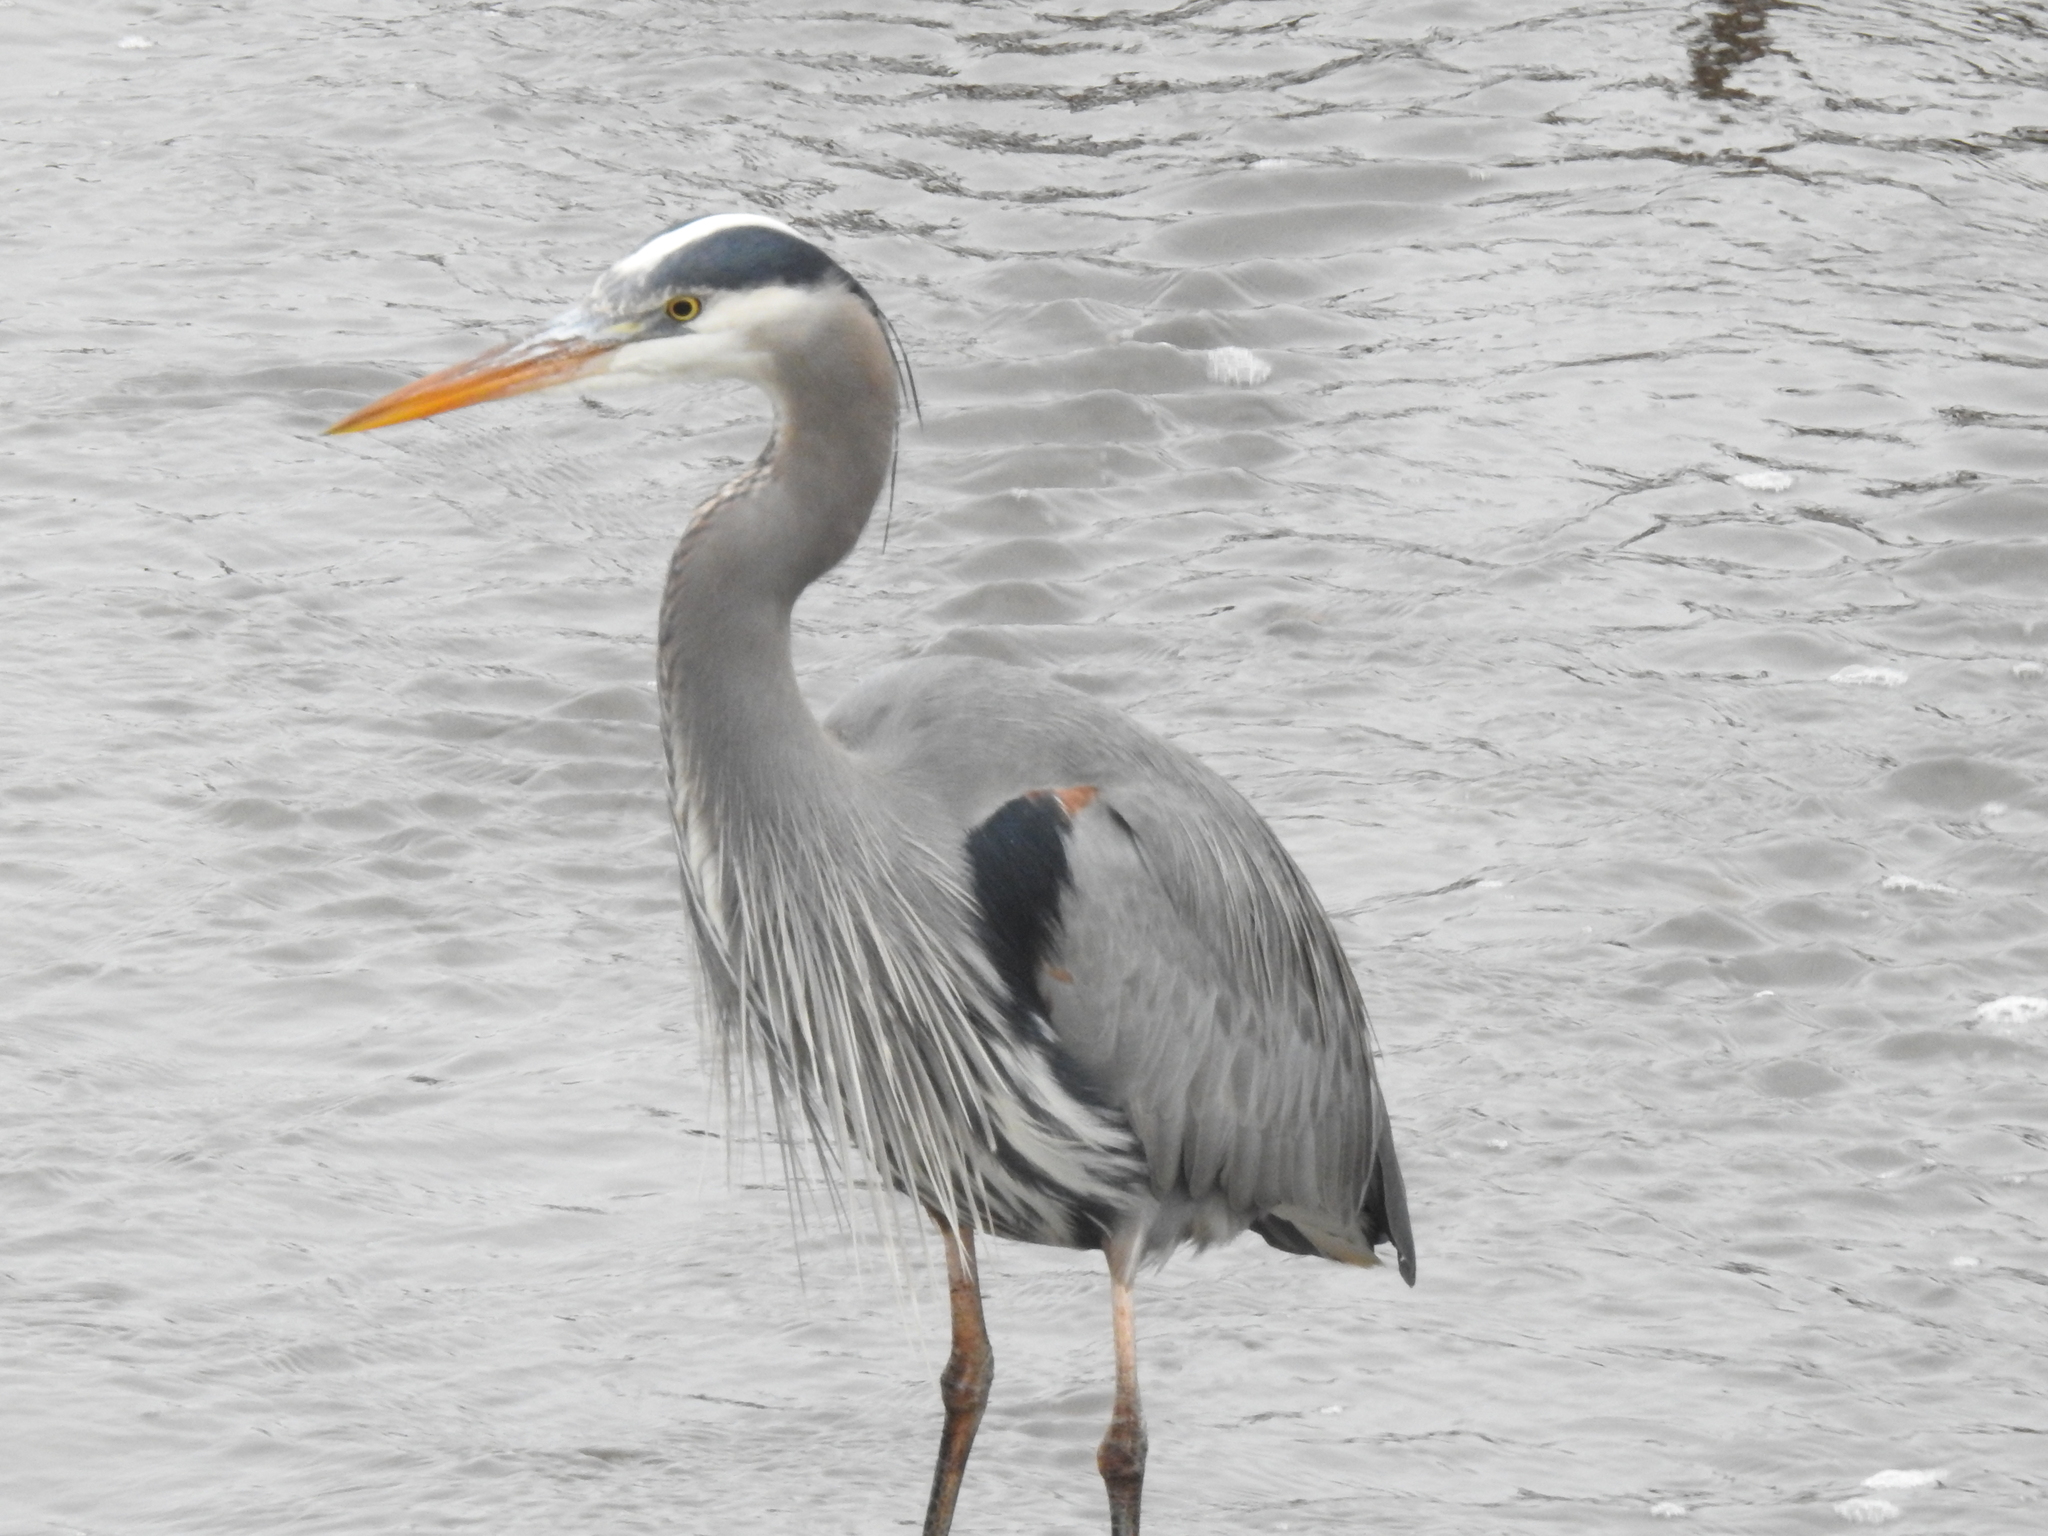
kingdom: Animalia
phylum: Chordata
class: Aves
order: Pelecaniformes
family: Ardeidae
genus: Ardea
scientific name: Ardea herodias
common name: Great blue heron
